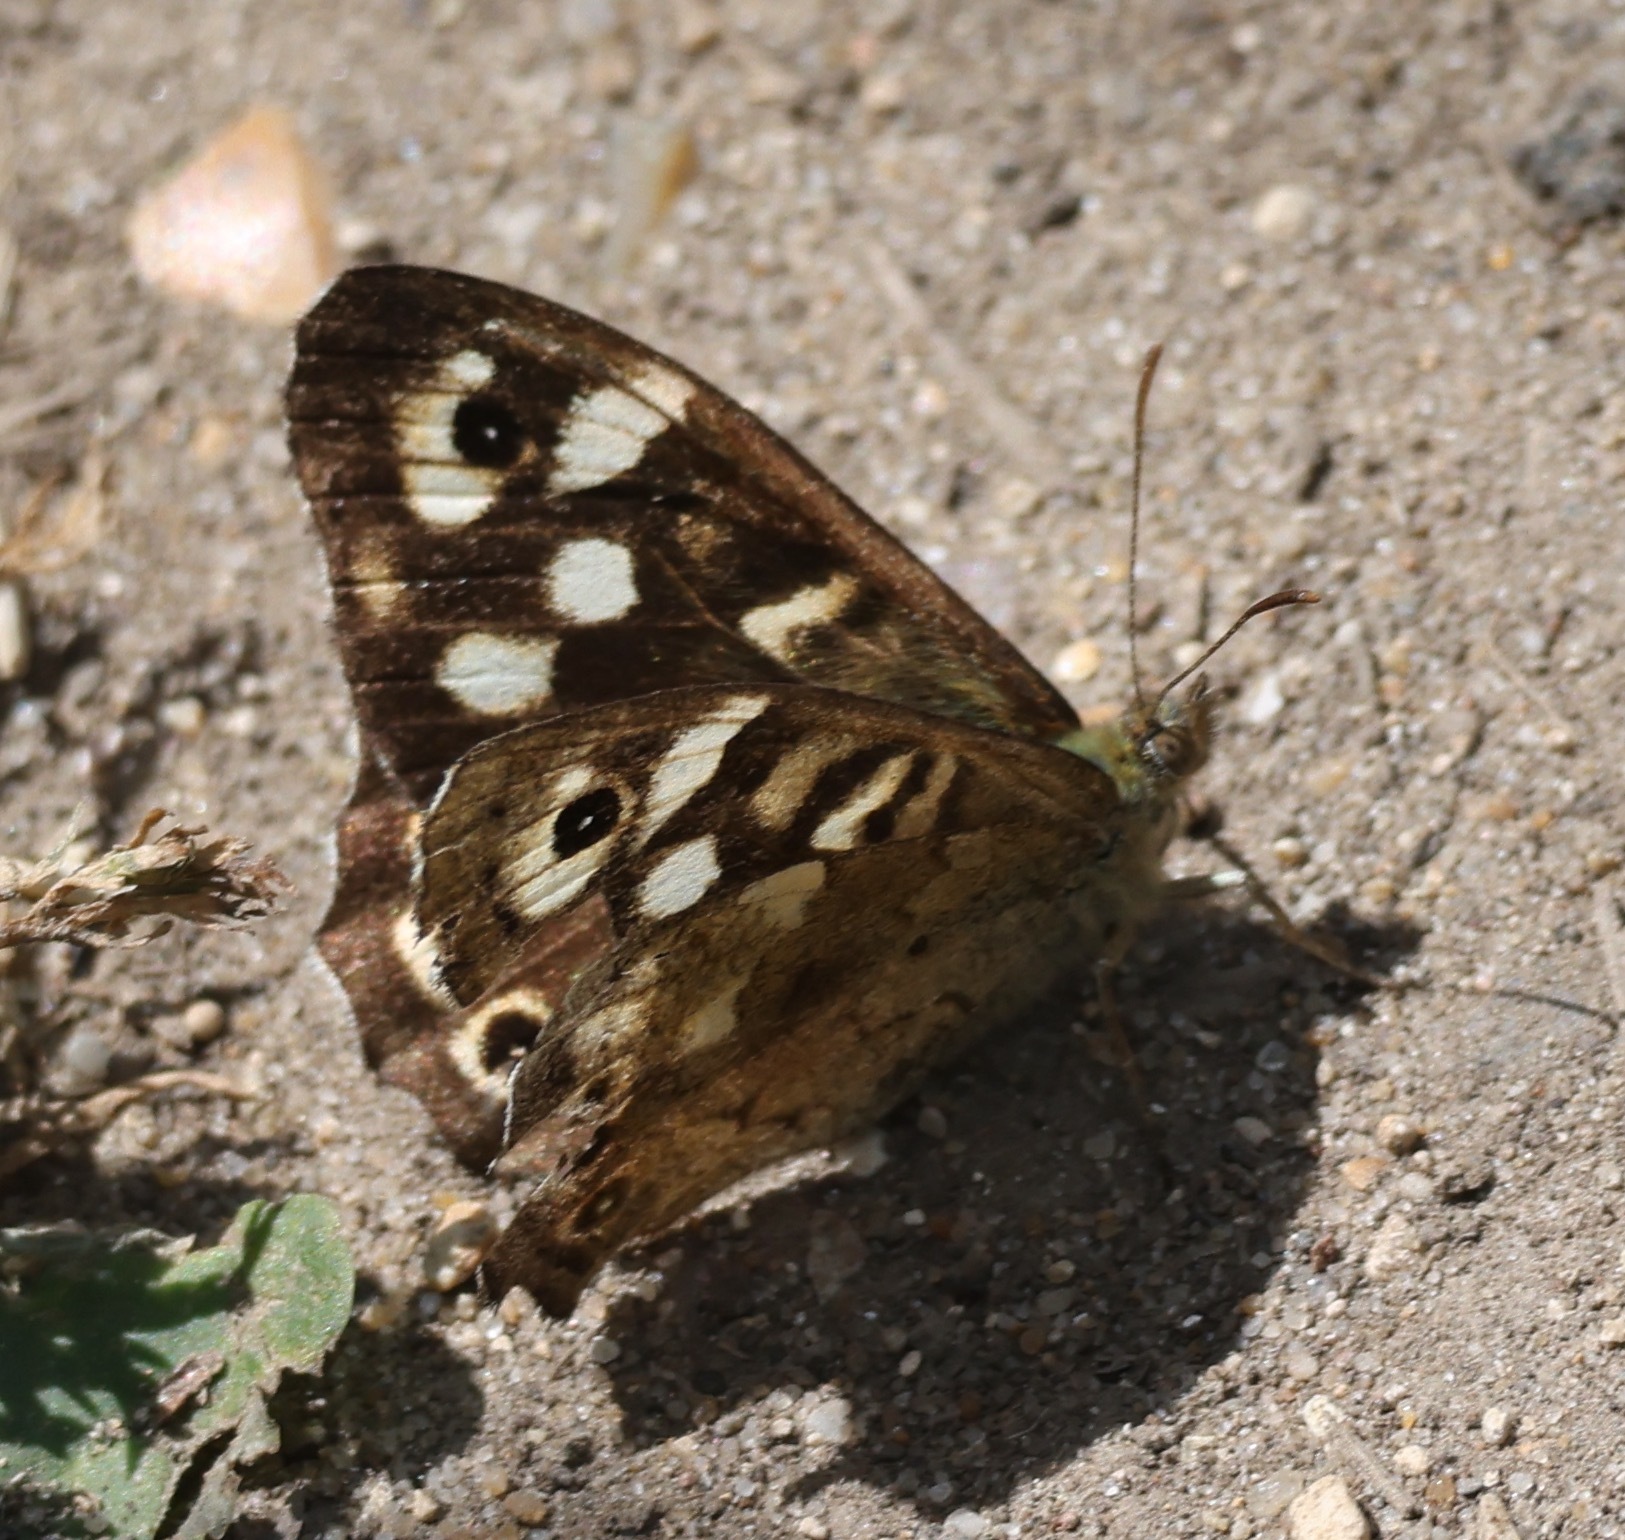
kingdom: Animalia
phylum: Arthropoda
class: Insecta
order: Lepidoptera
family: Nymphalidae
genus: Pararge
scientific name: Pararge aegeria
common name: Speckled wood
